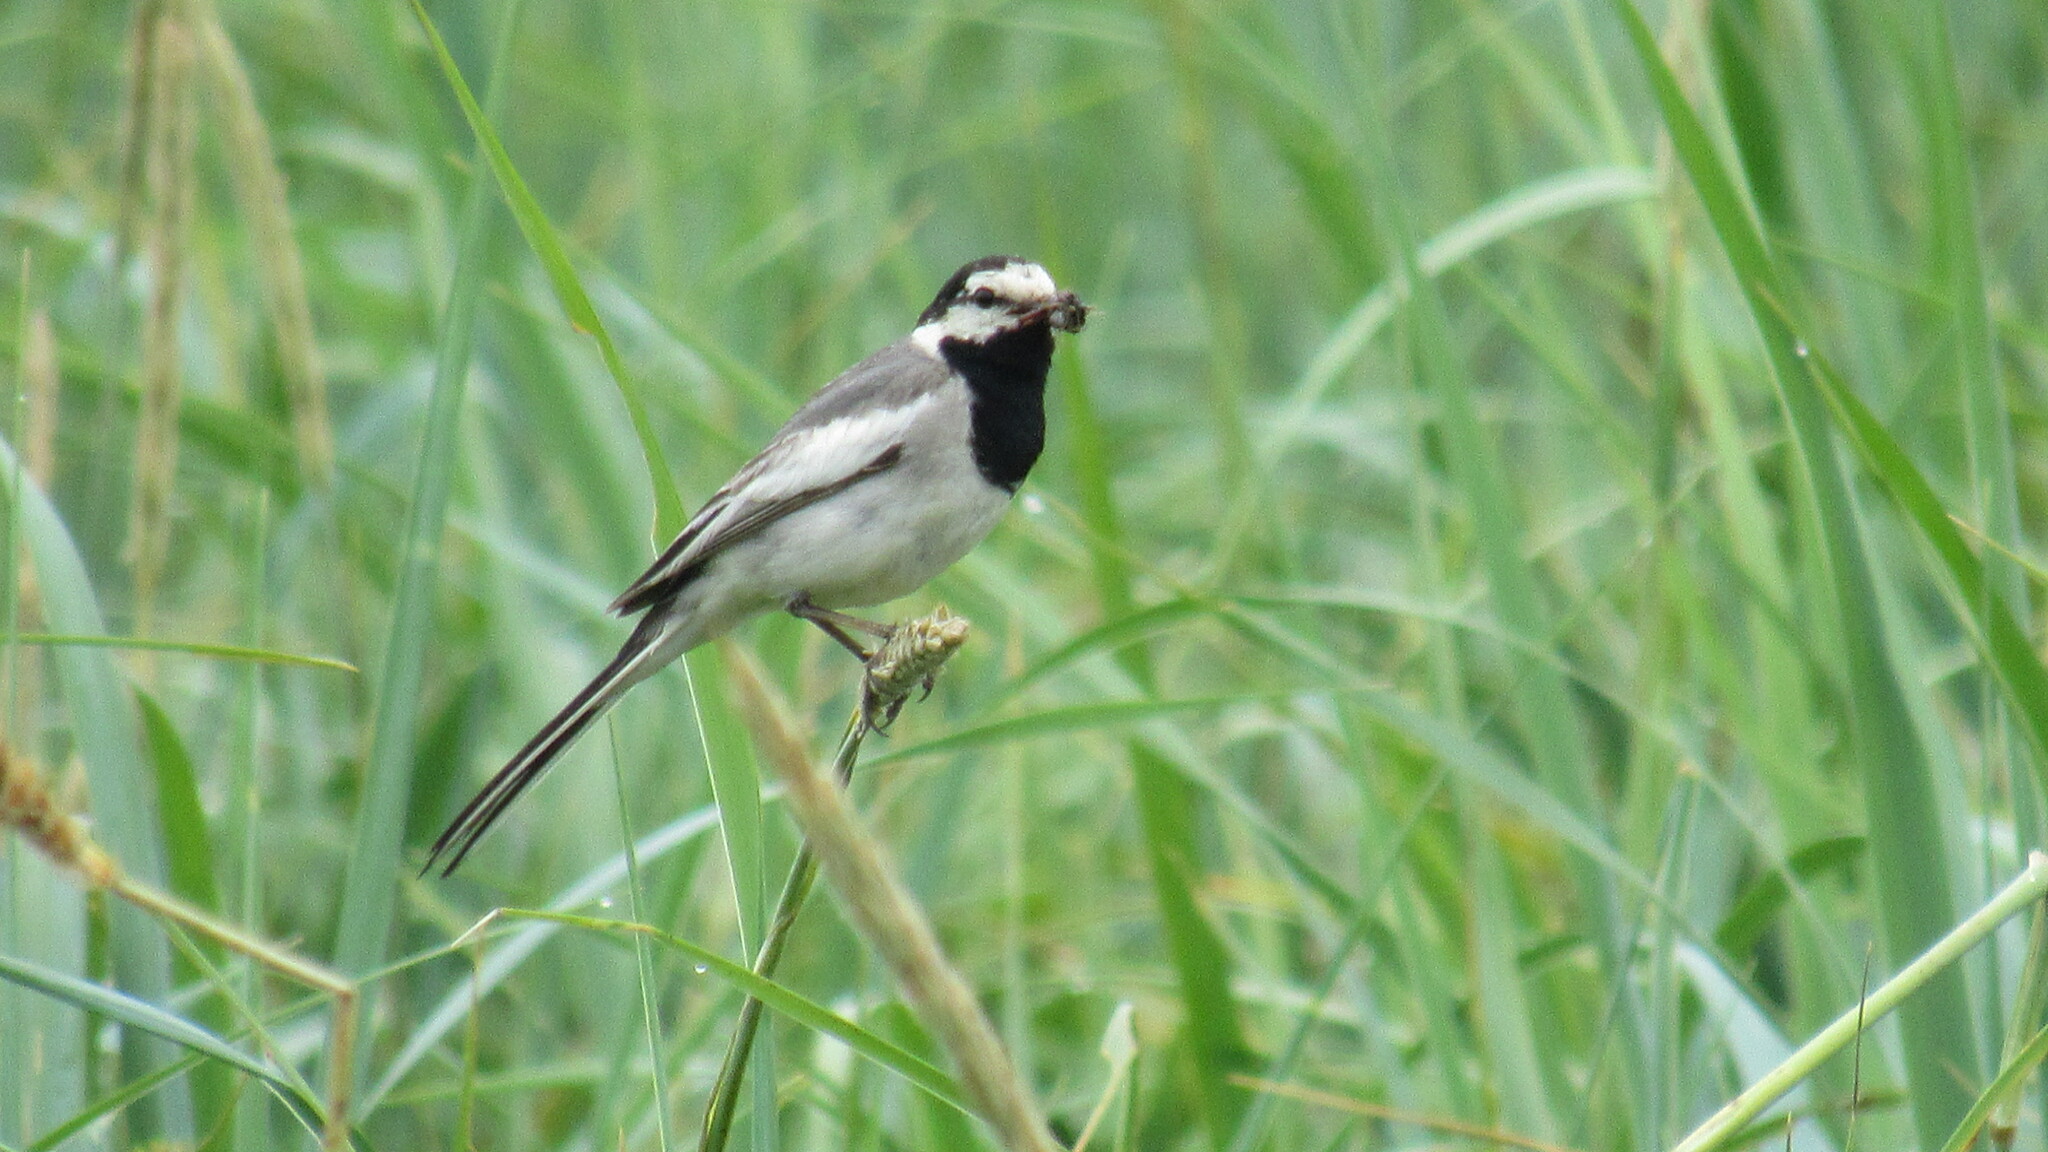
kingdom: Animalia
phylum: Chordata
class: Aves
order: Passeriformes
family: Motacillidae
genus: Motacilla
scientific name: Motacilla alba
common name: White wagtail
